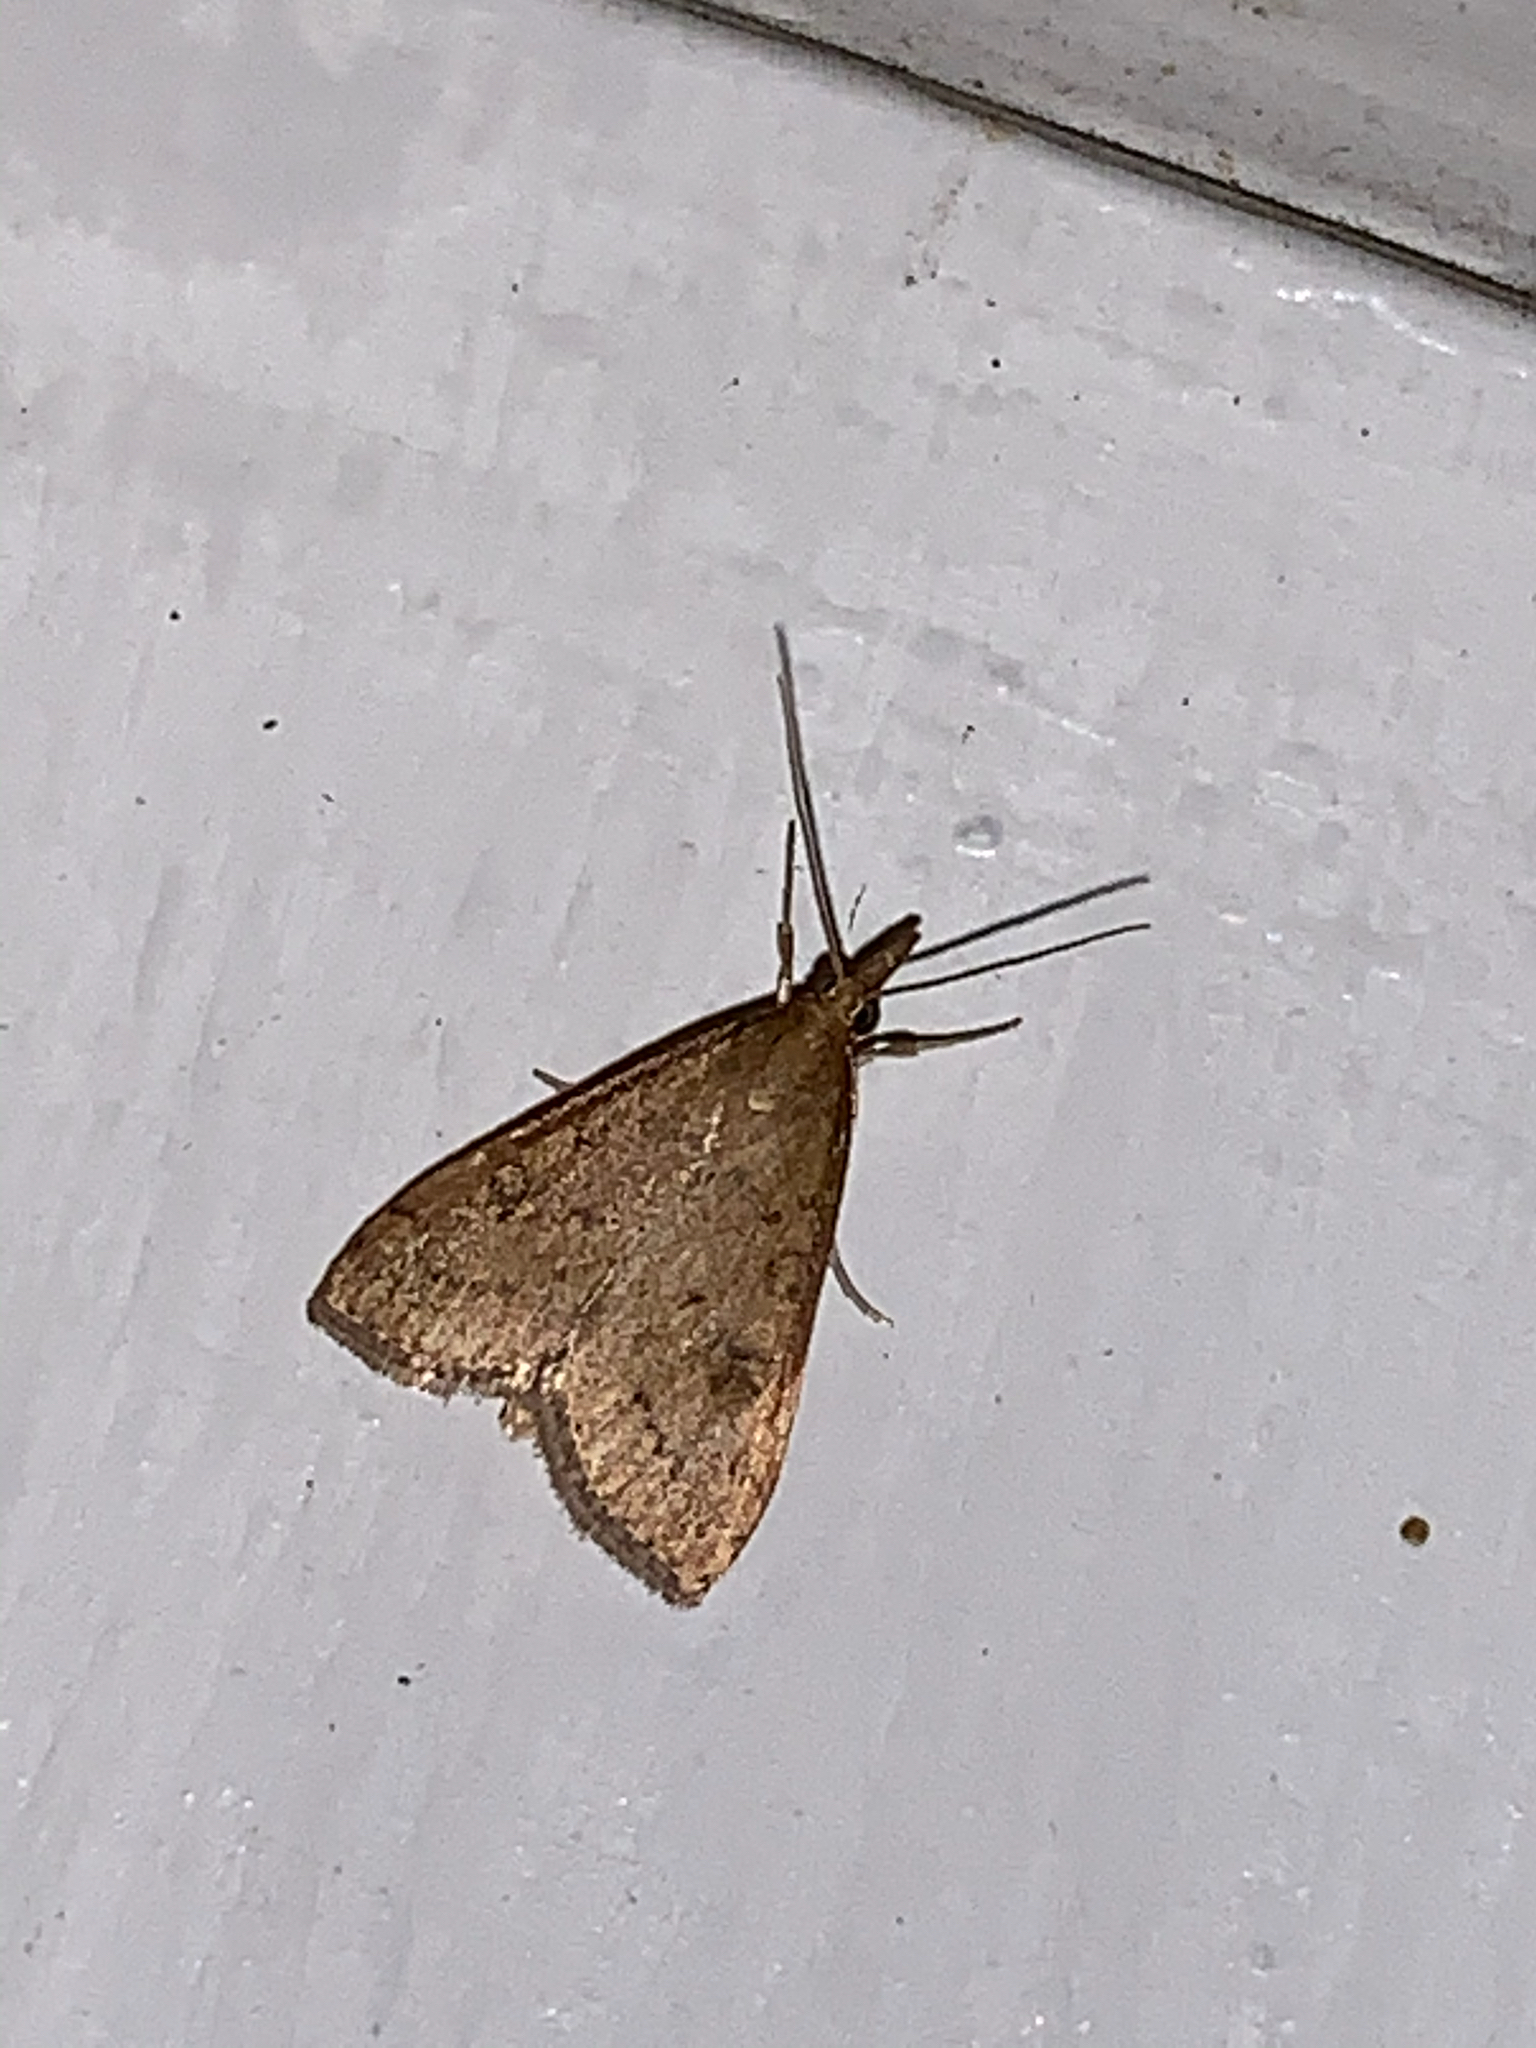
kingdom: Animalia
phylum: Arthropoda
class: Insecta
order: Lepidoptera
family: Crambidae
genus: Udea
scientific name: Udea rubigalis
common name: Celery leaftier moth
